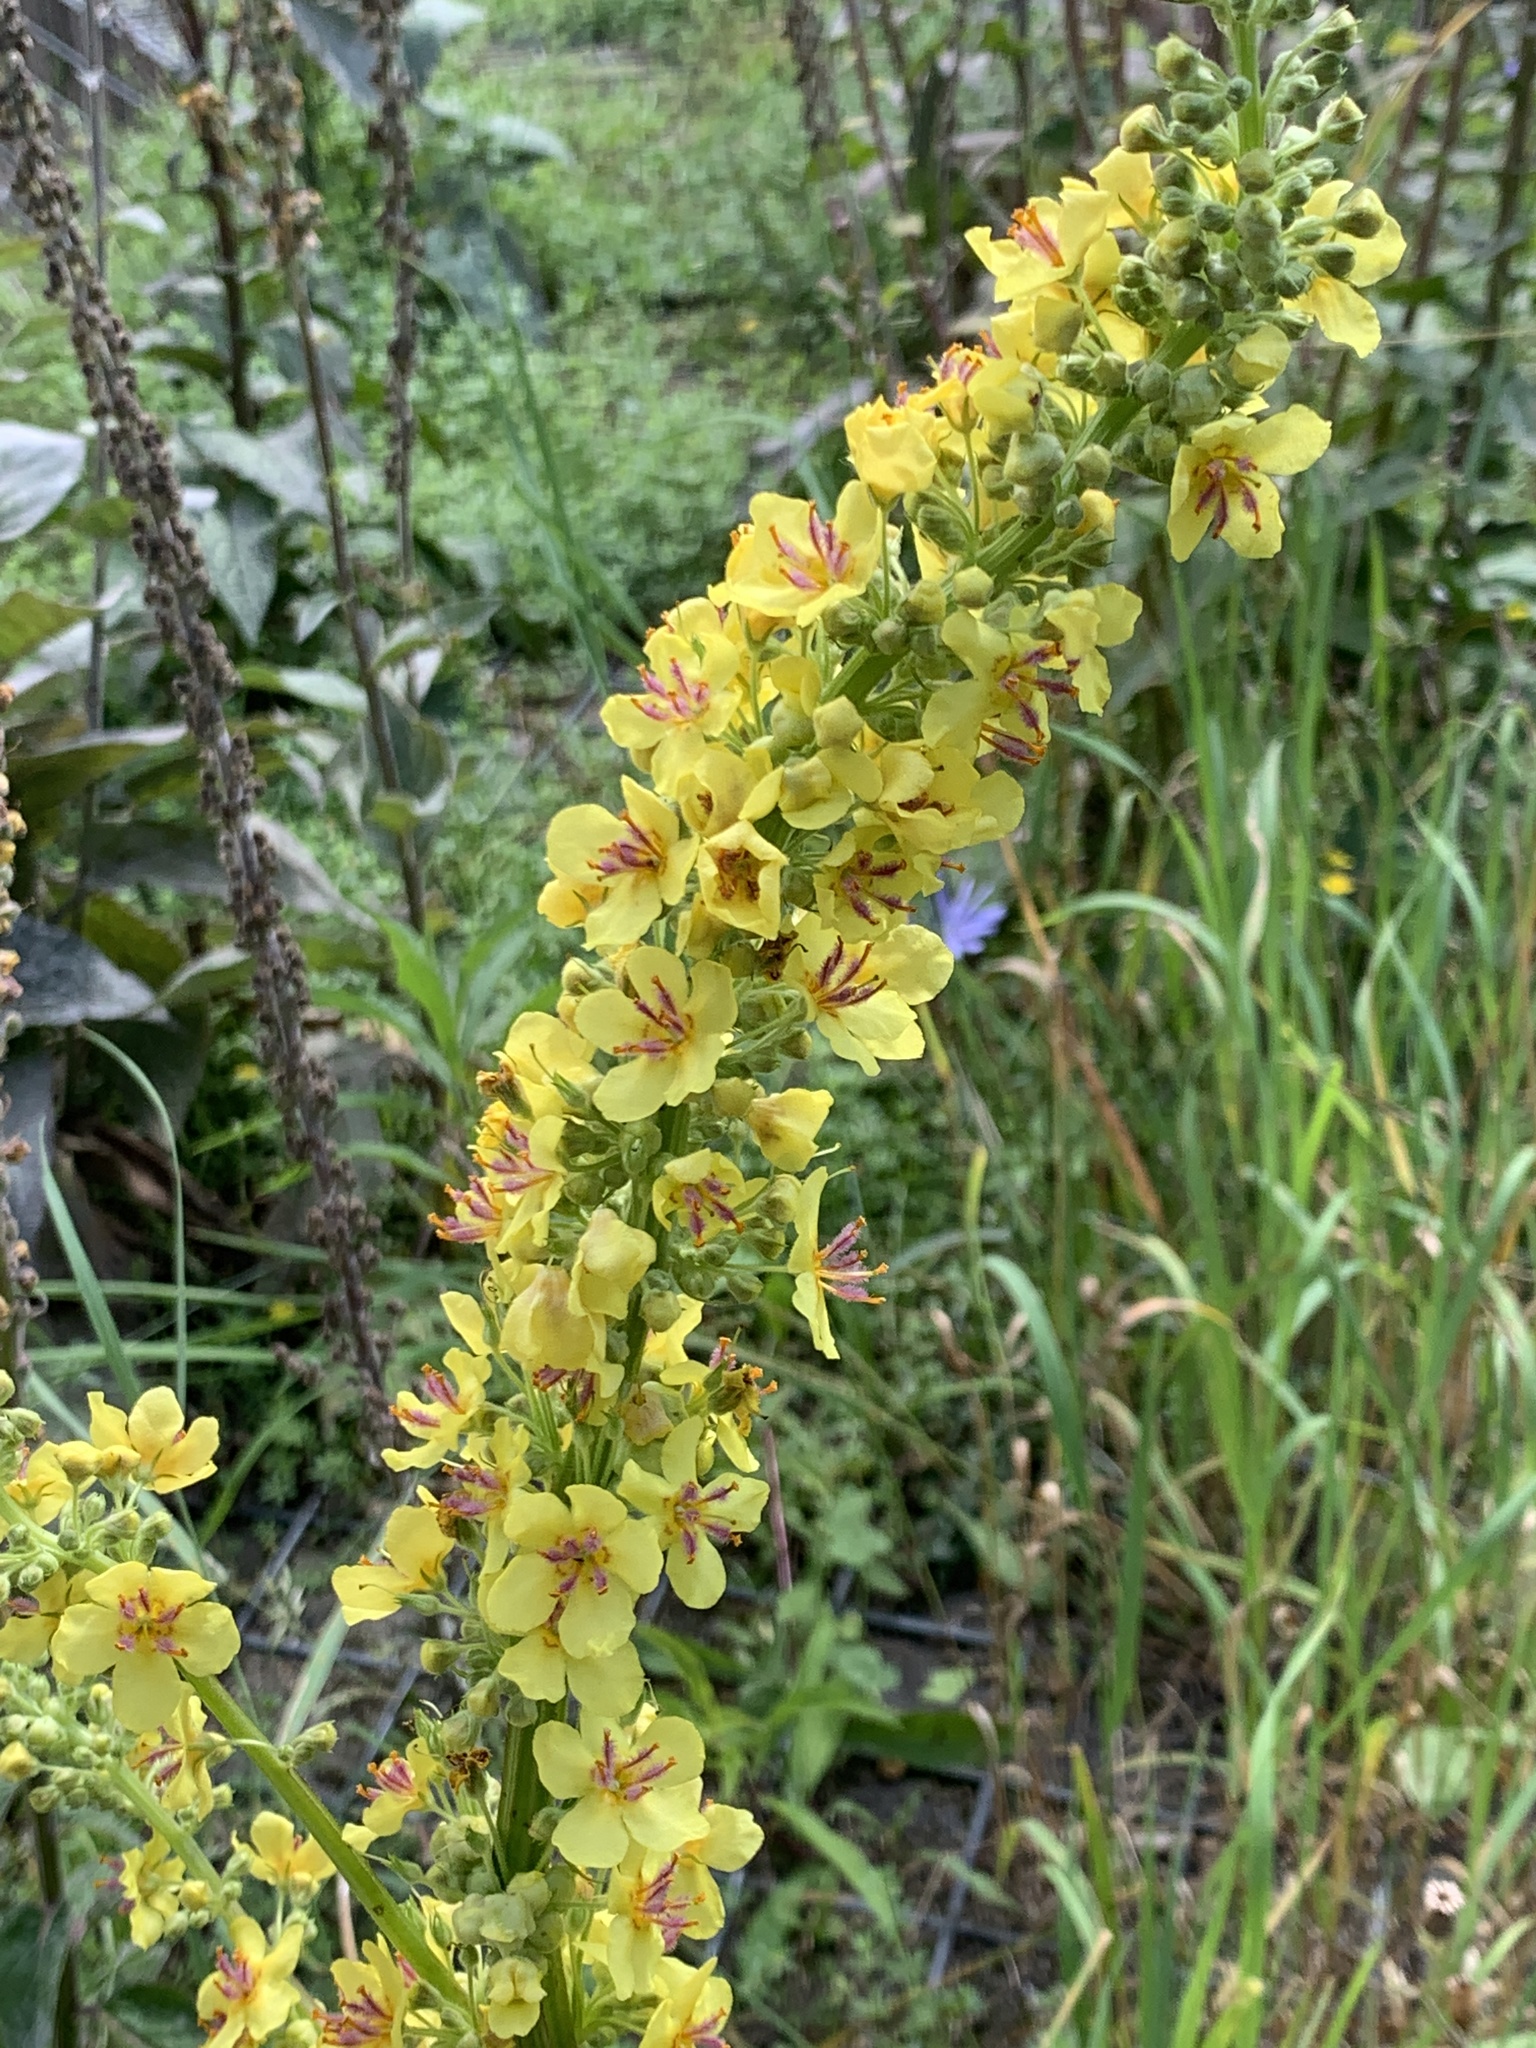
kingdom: Plantae
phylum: Tracheophyta
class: Magnoliopsida
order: Lamiales
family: Scrophulariaceae
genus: Verbascum
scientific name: Verbascum nigrum
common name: Dark mullein
